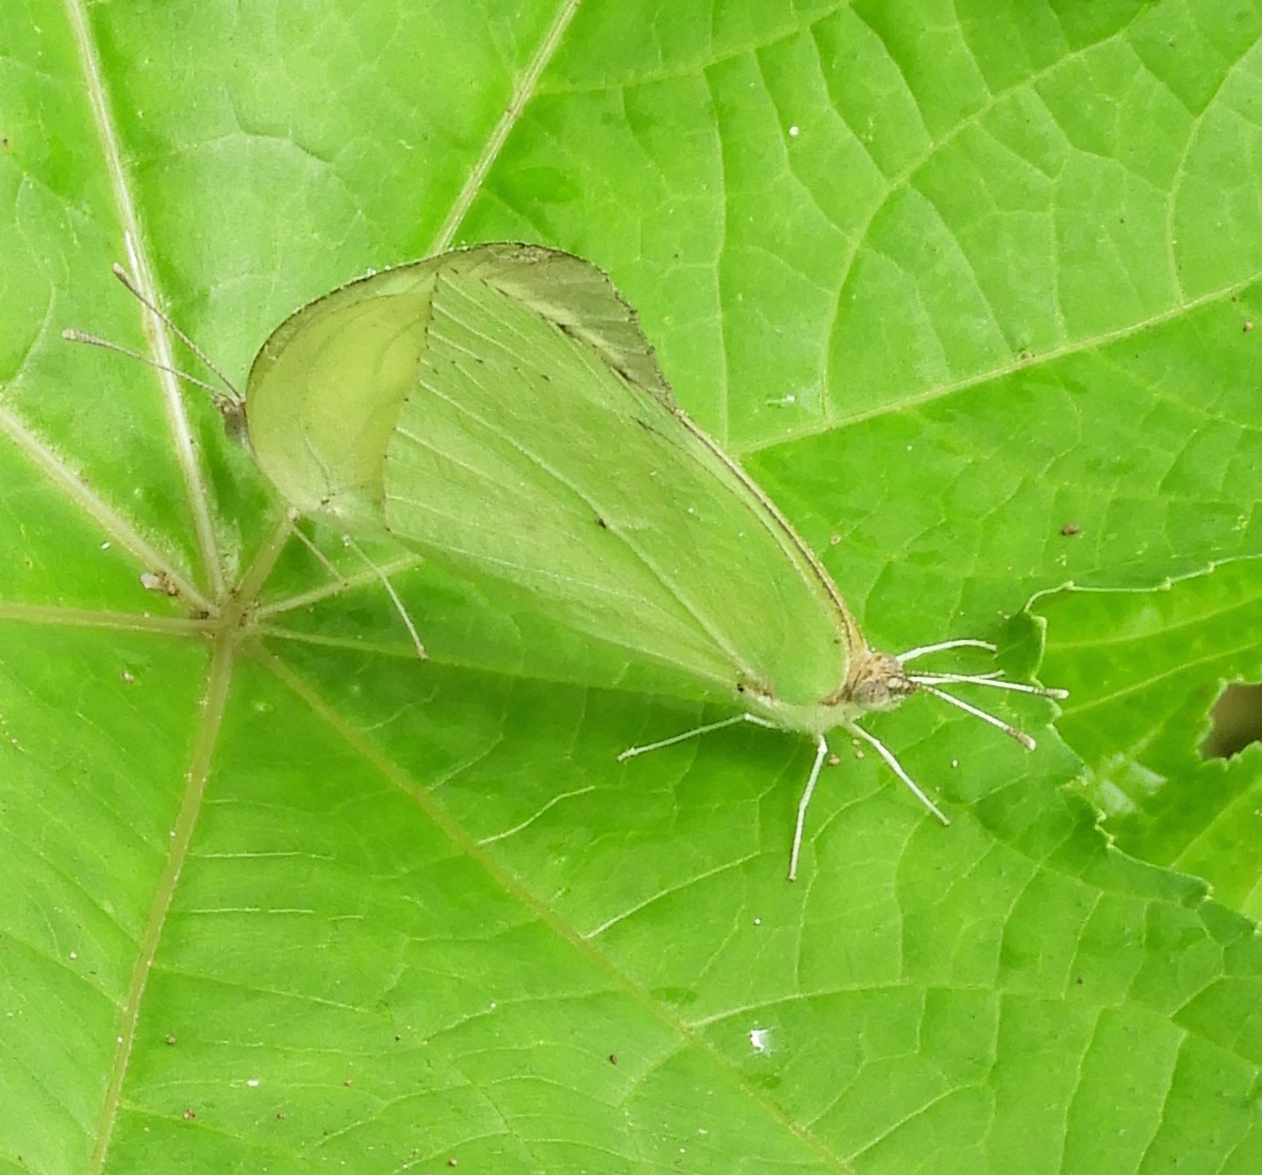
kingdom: Animalia
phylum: Arthropoda
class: Insecta
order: Lepidoptera
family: Pieridae
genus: Kricogonia
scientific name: Kricogonia lyside
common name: Guayacan sulphur,
